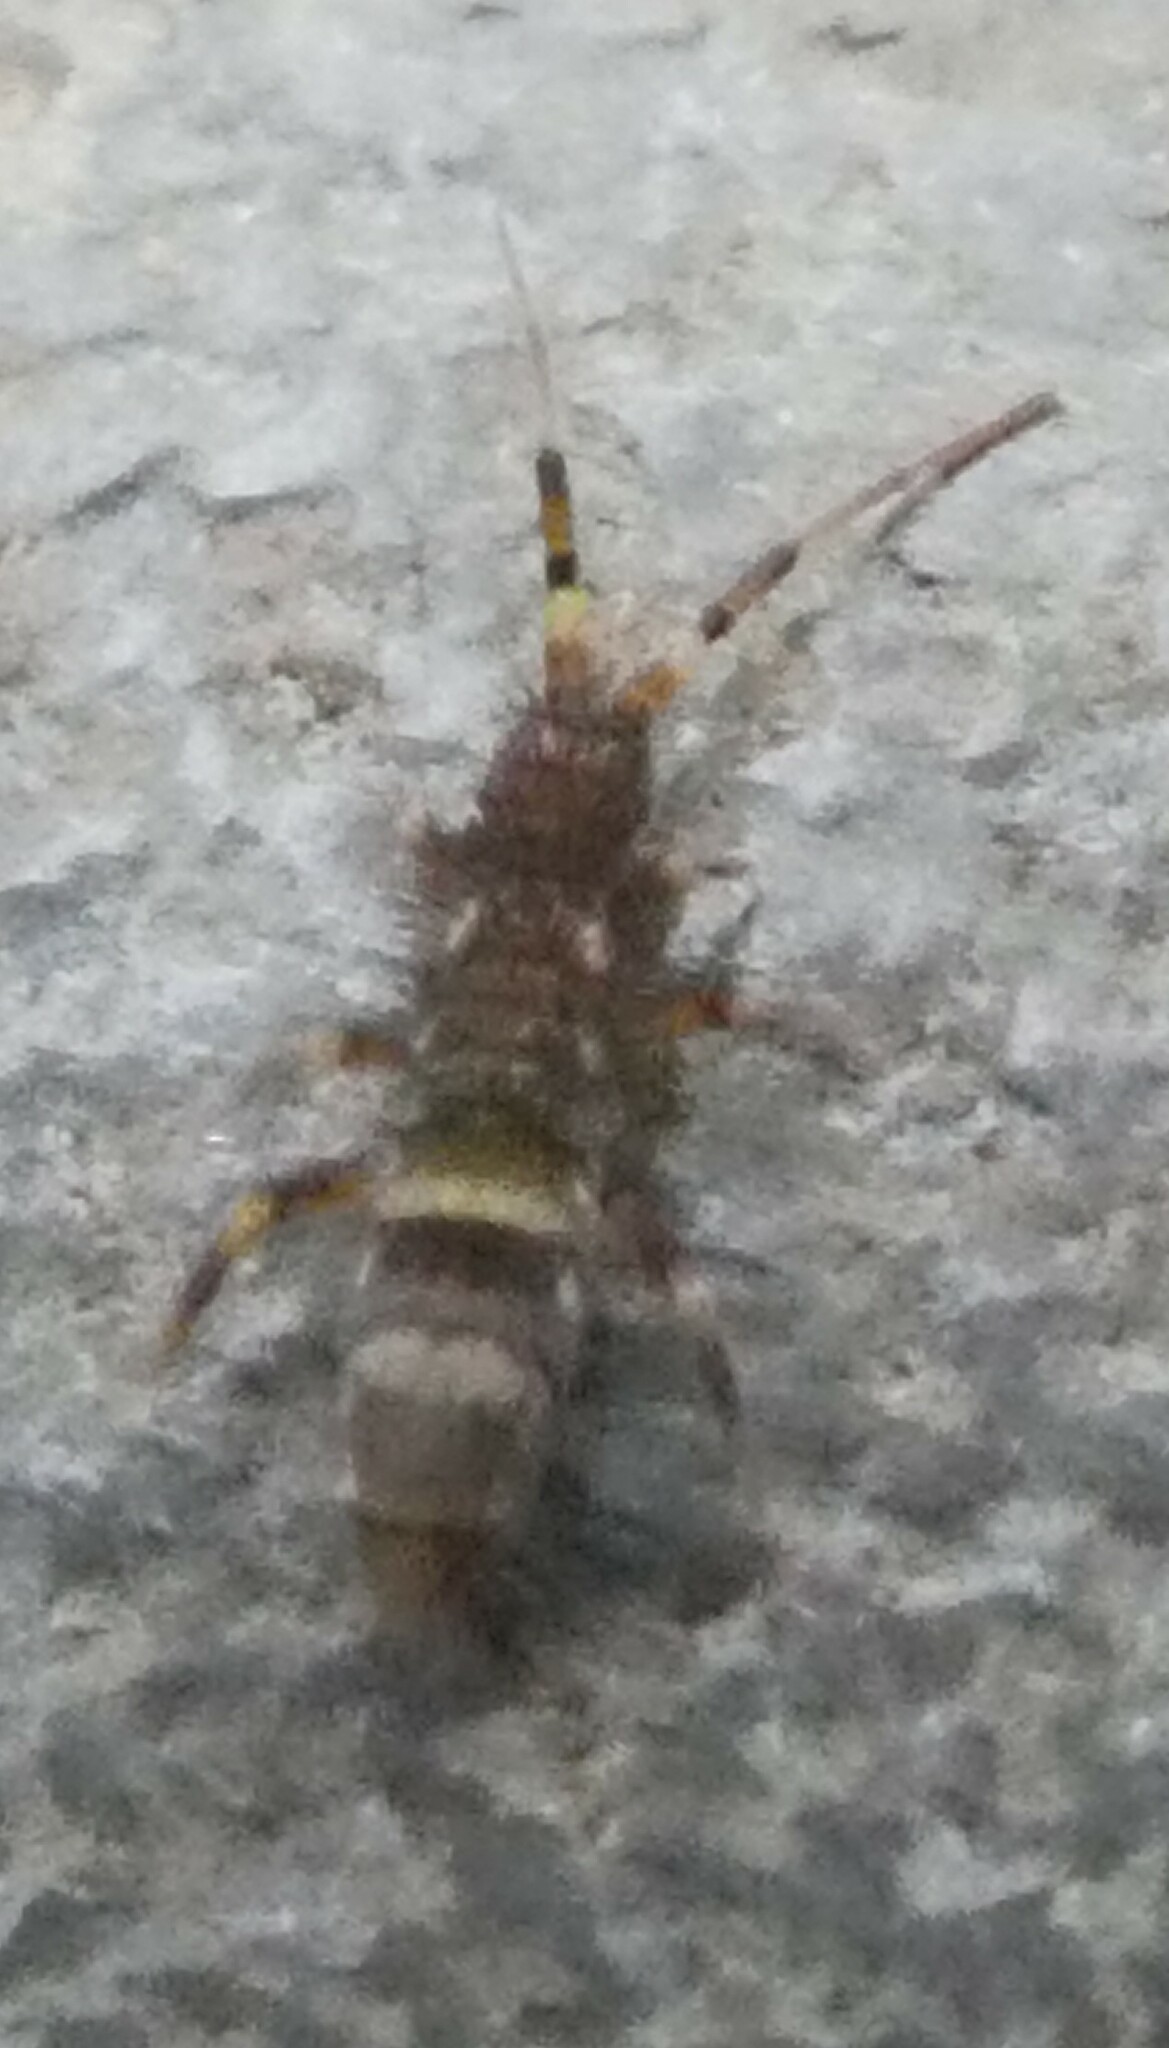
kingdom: Animalia
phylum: Arthropoda
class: Collembola
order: Entomobryomorpha
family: Orchesellidae
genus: Orchesella
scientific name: Orchesella cincta
